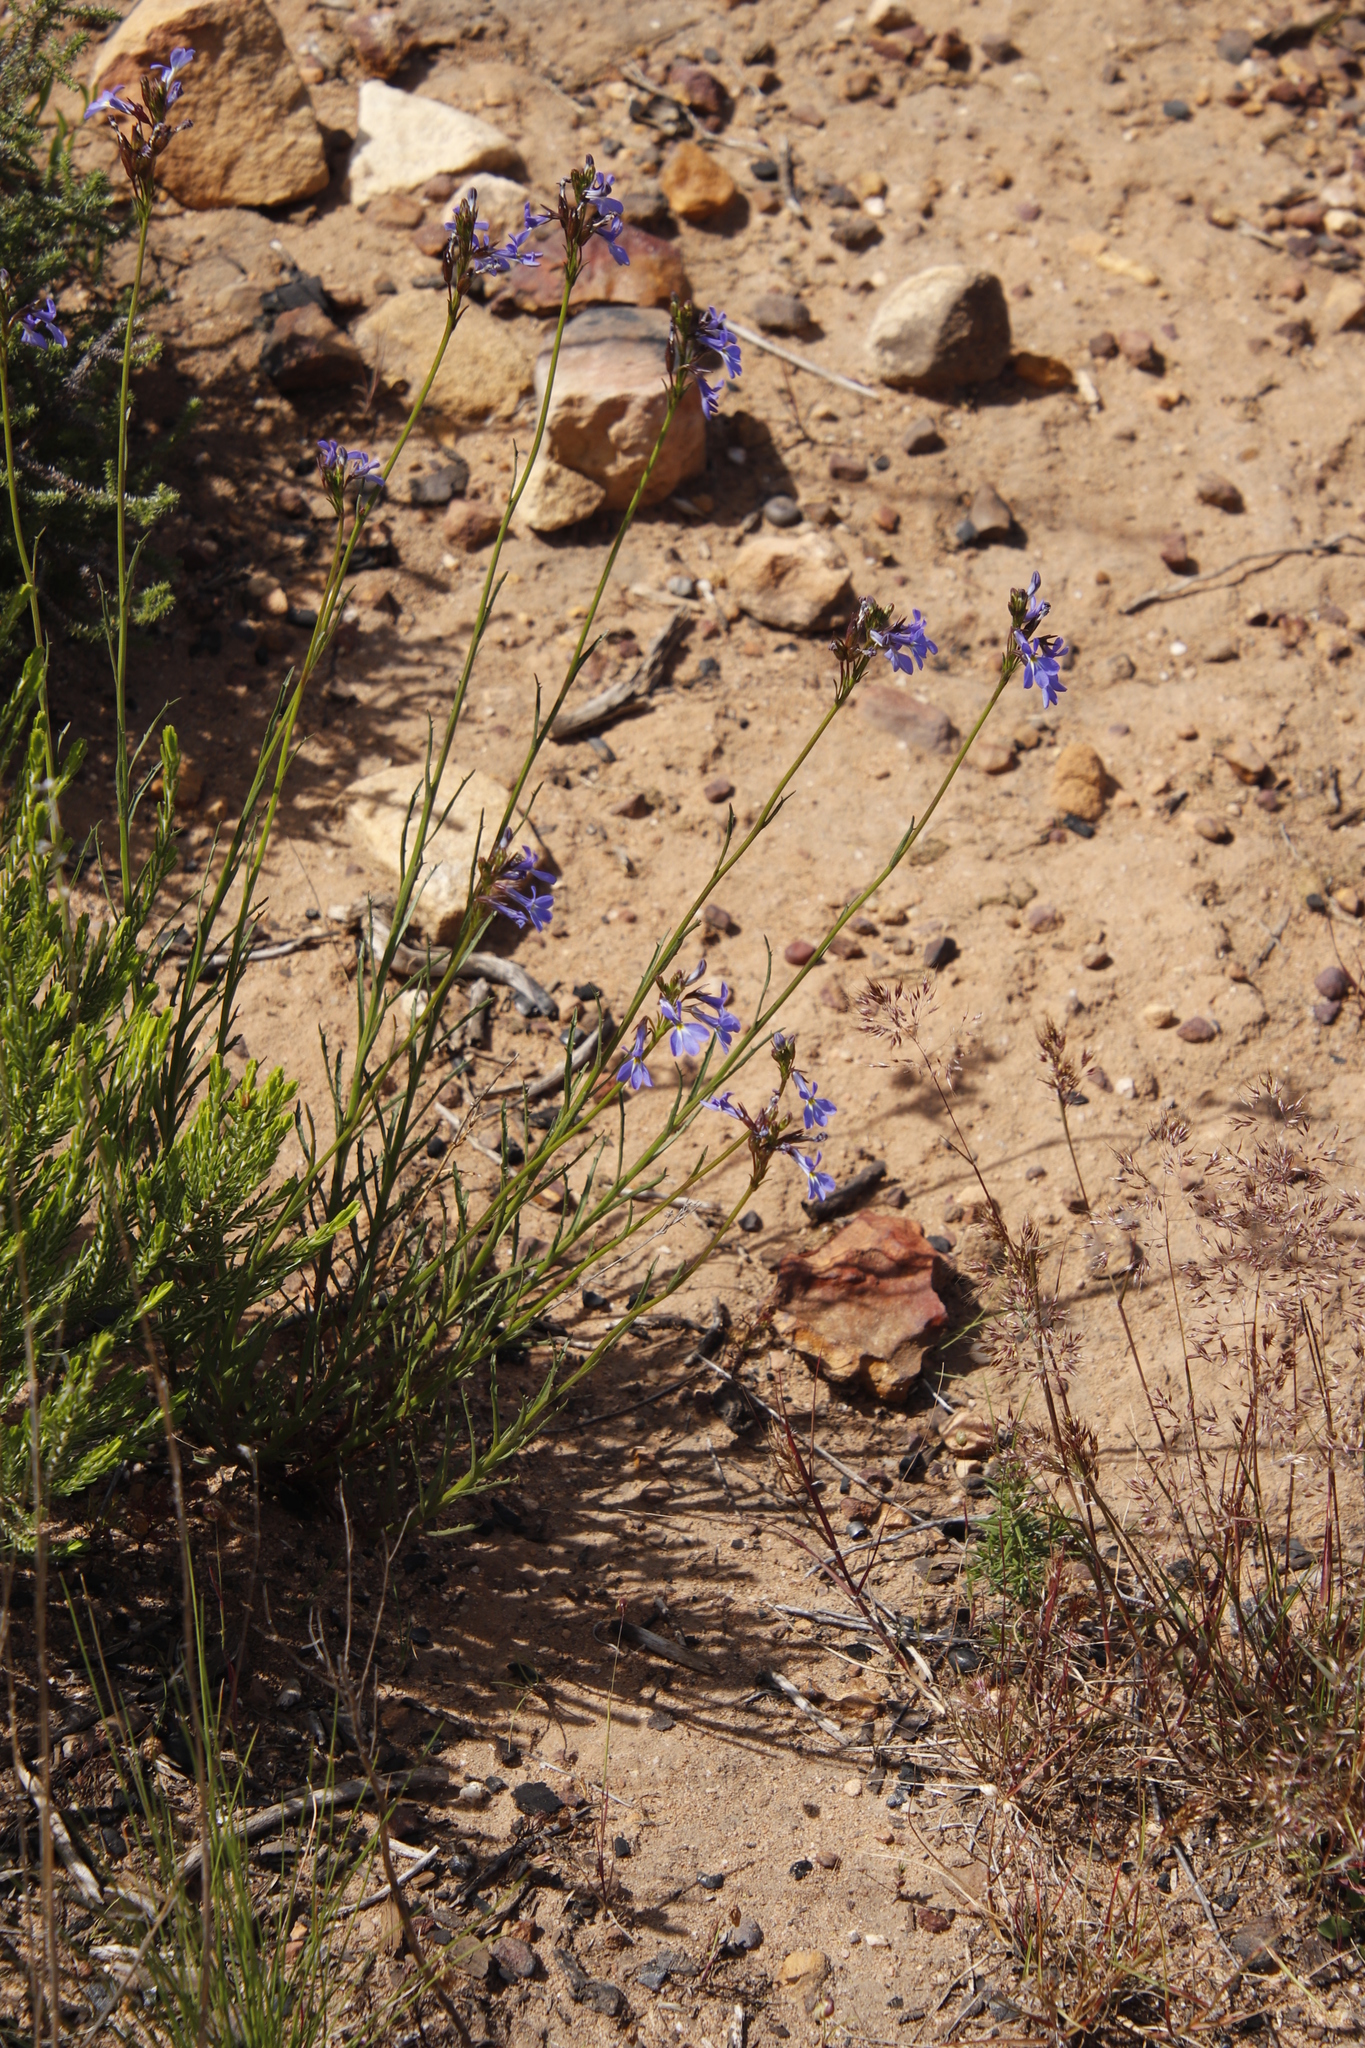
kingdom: Plantae
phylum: Tracheophyta
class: Magnoliopsida
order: Asterales
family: Campanulaceae
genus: Lobelia
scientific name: Lobelia comosa
